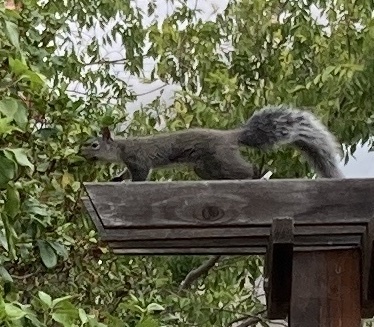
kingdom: Animalia
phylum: Chordata
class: Mammalia
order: Rodentia
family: Sciuridae
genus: Sciurus
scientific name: Sciurus griseus
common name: Western gray squirrel
